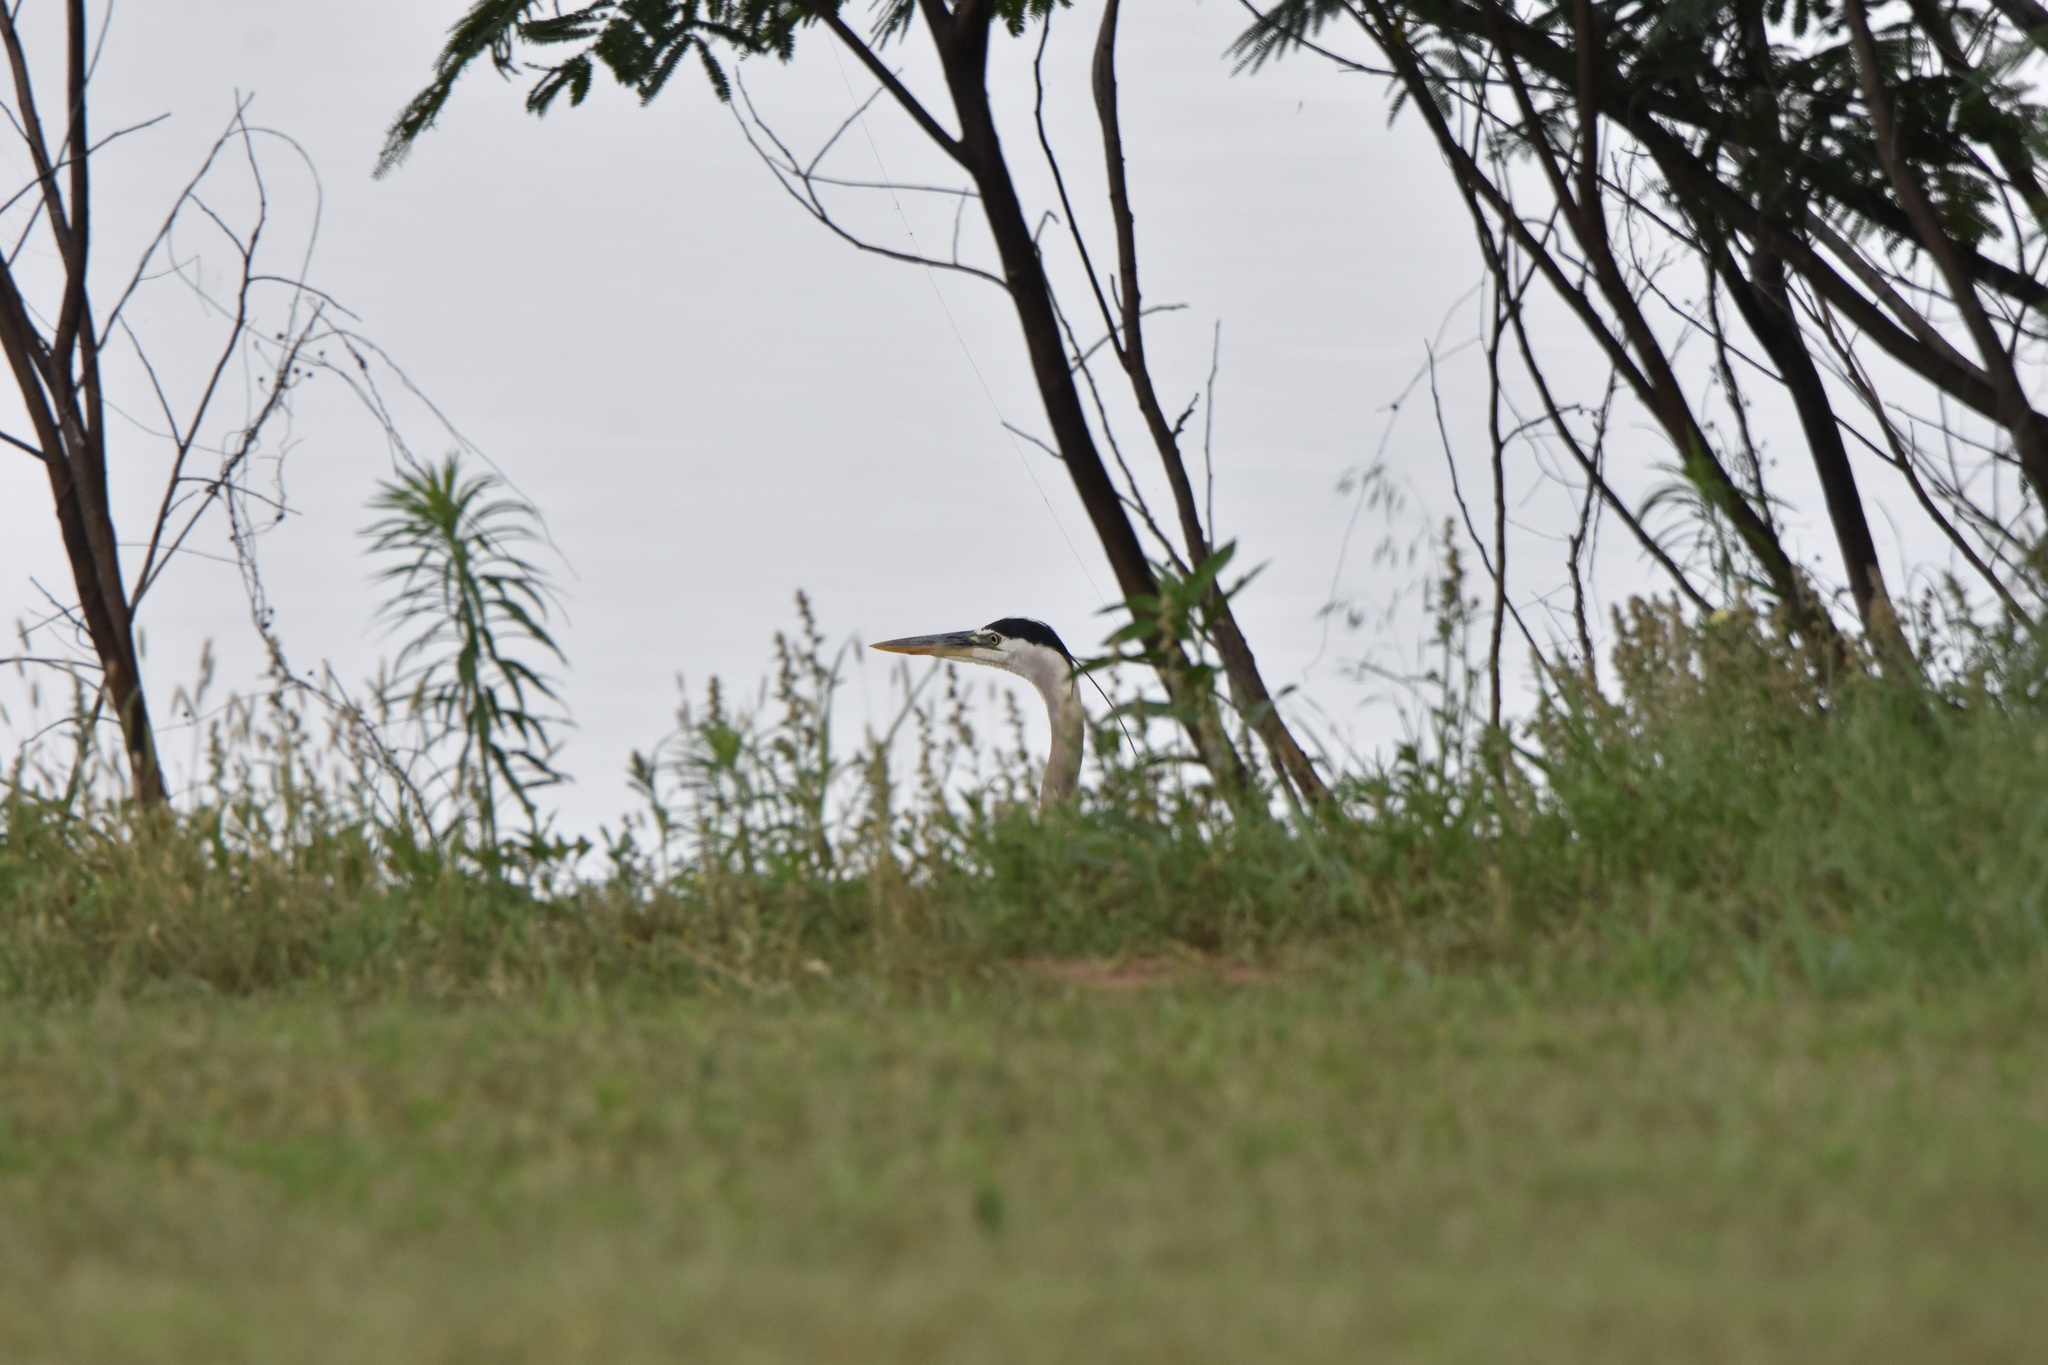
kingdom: Animalia
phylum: Chordata
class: Aves
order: Pelecaniformes
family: Ardeidae
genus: Ardea
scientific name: Ardea herodias
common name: Great blue heron
